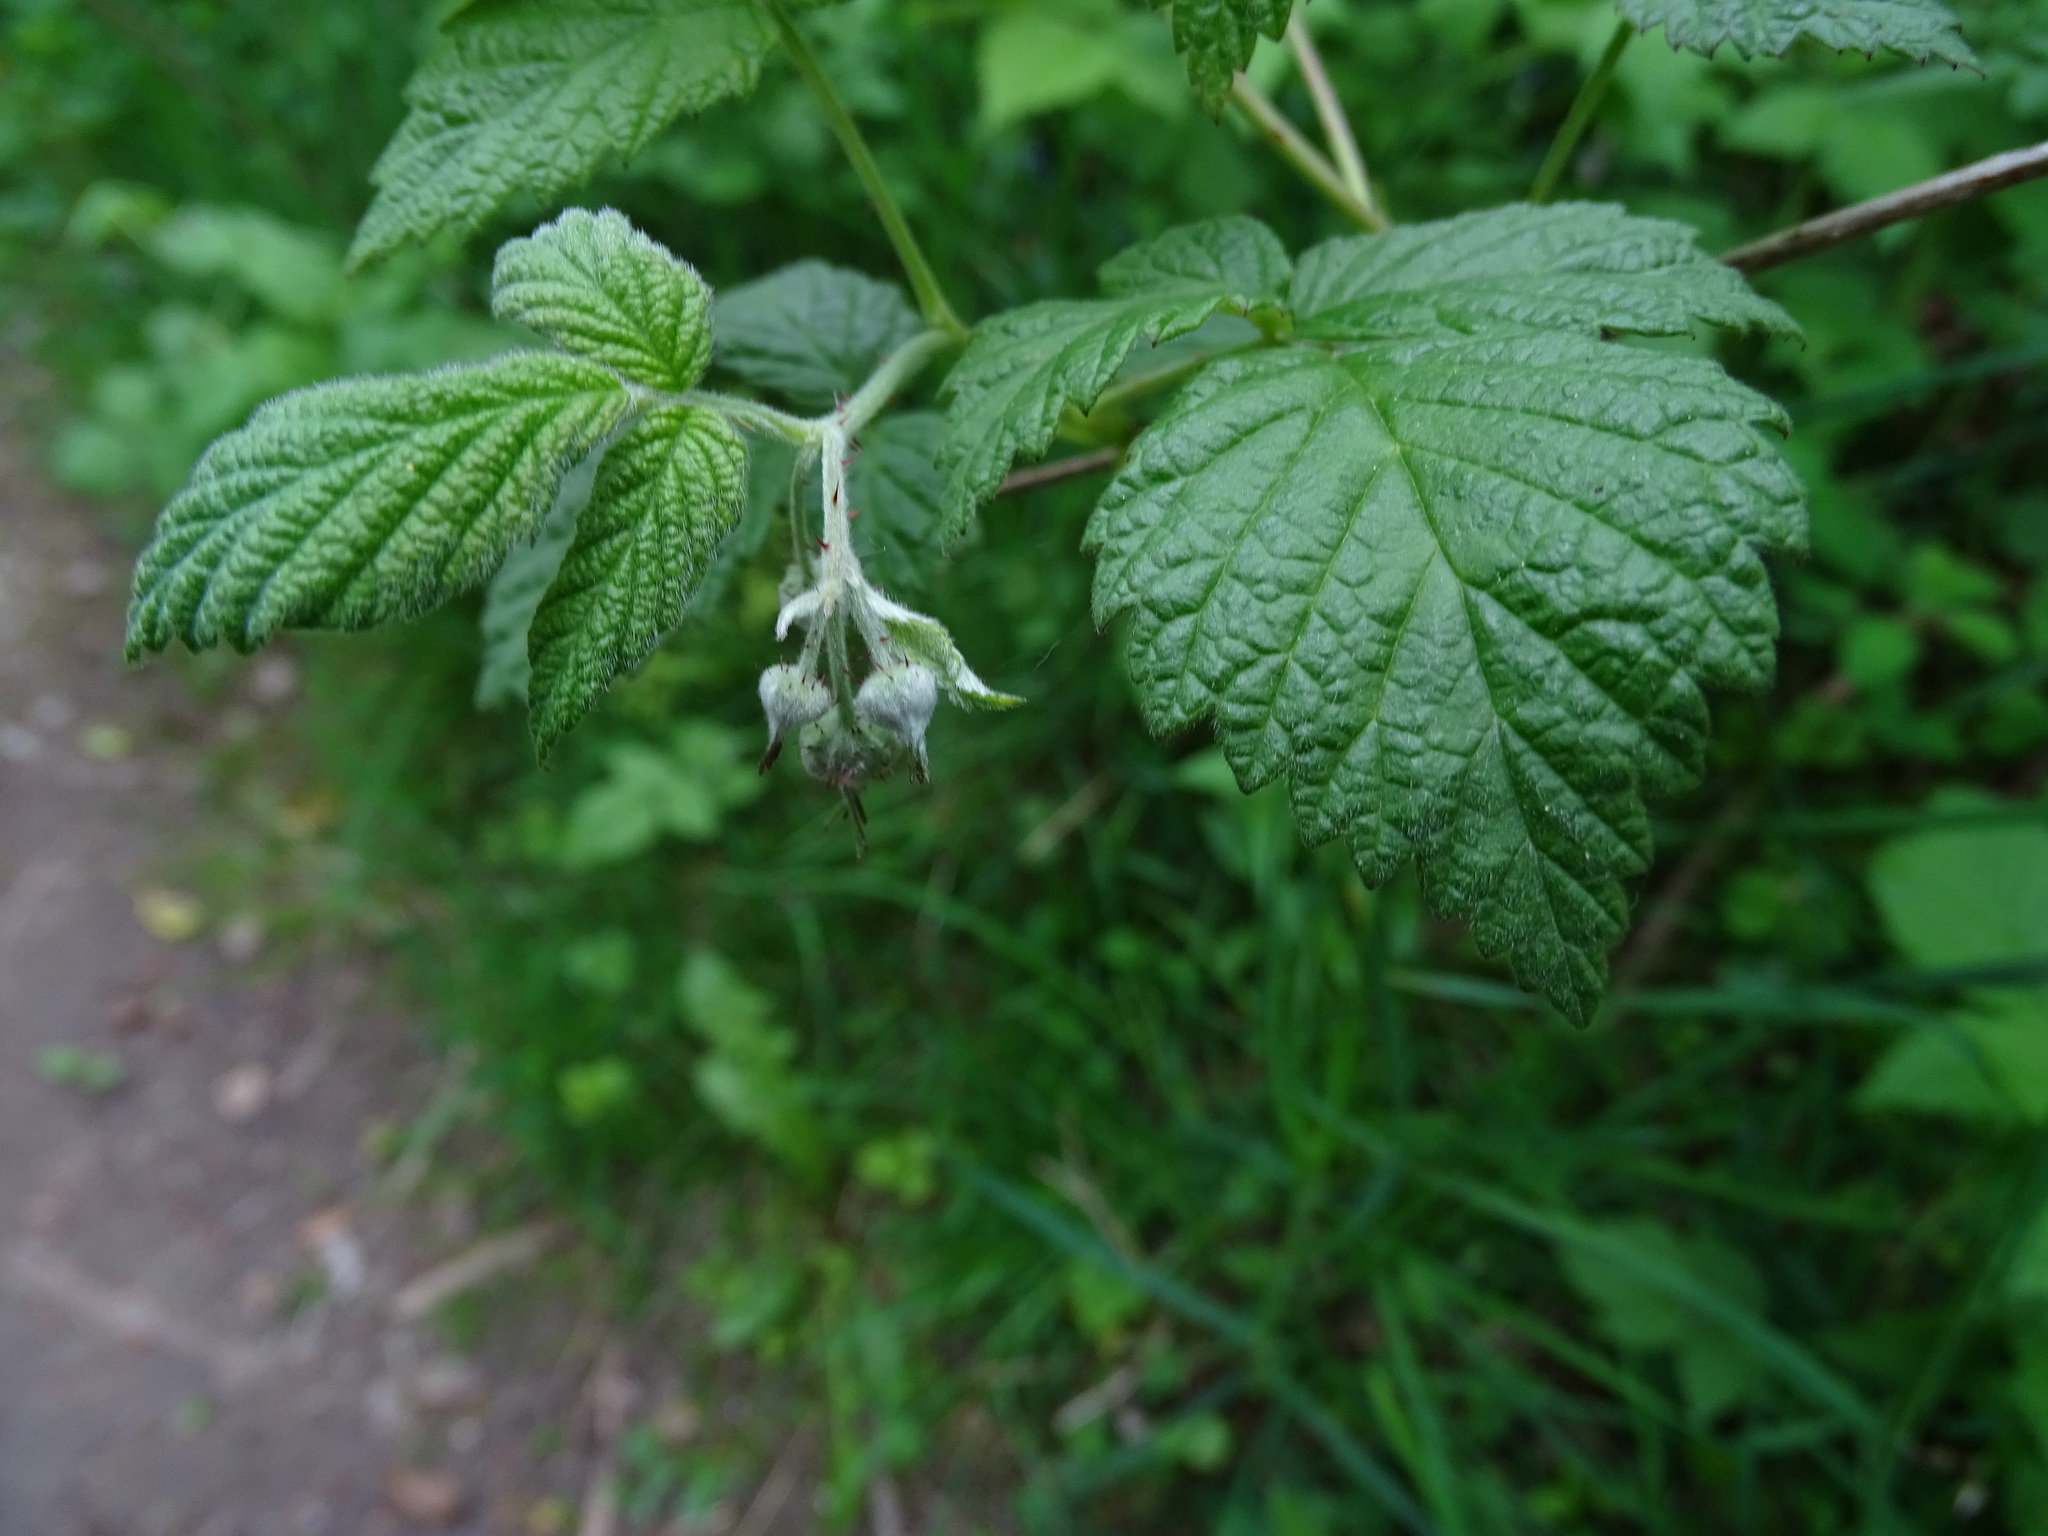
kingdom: Plantae
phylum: Tracheophyta
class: Magnoliopsida
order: Rosales
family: Rosaceae
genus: Rubus
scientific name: Rubus idaeus
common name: Raspberry
